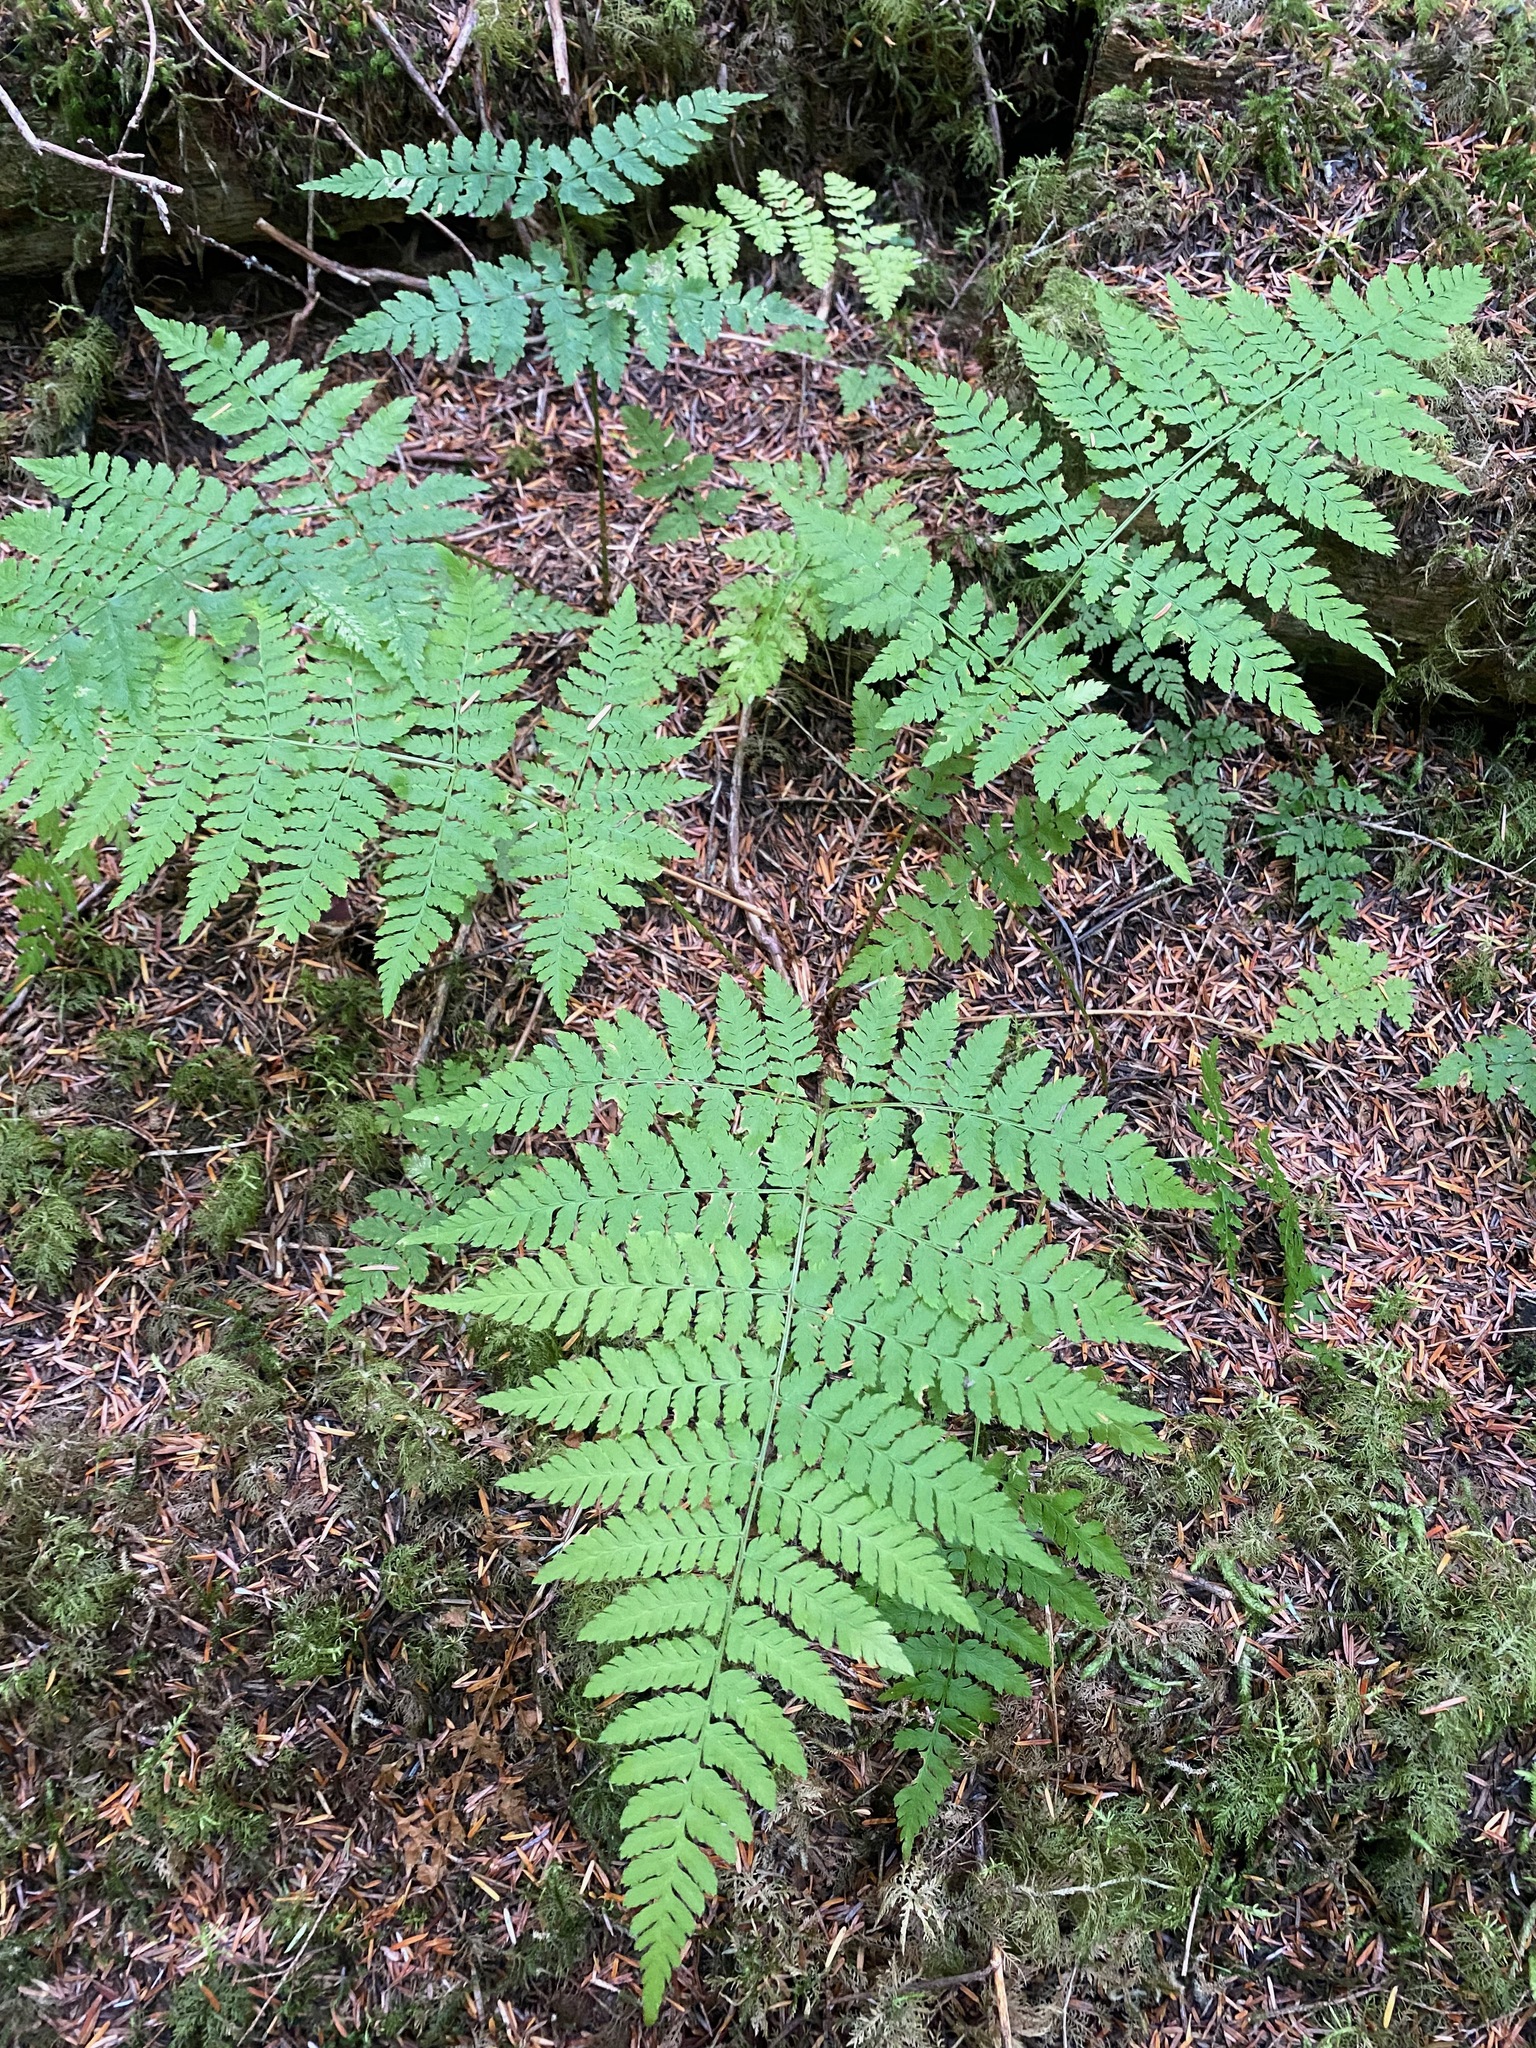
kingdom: Plantae
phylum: Tracheophyta
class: Polypodiopsida
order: Polypodiales
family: Dryopteridaceae
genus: Dryopteris
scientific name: Dryopteris expansa
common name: Northern buckler fern
